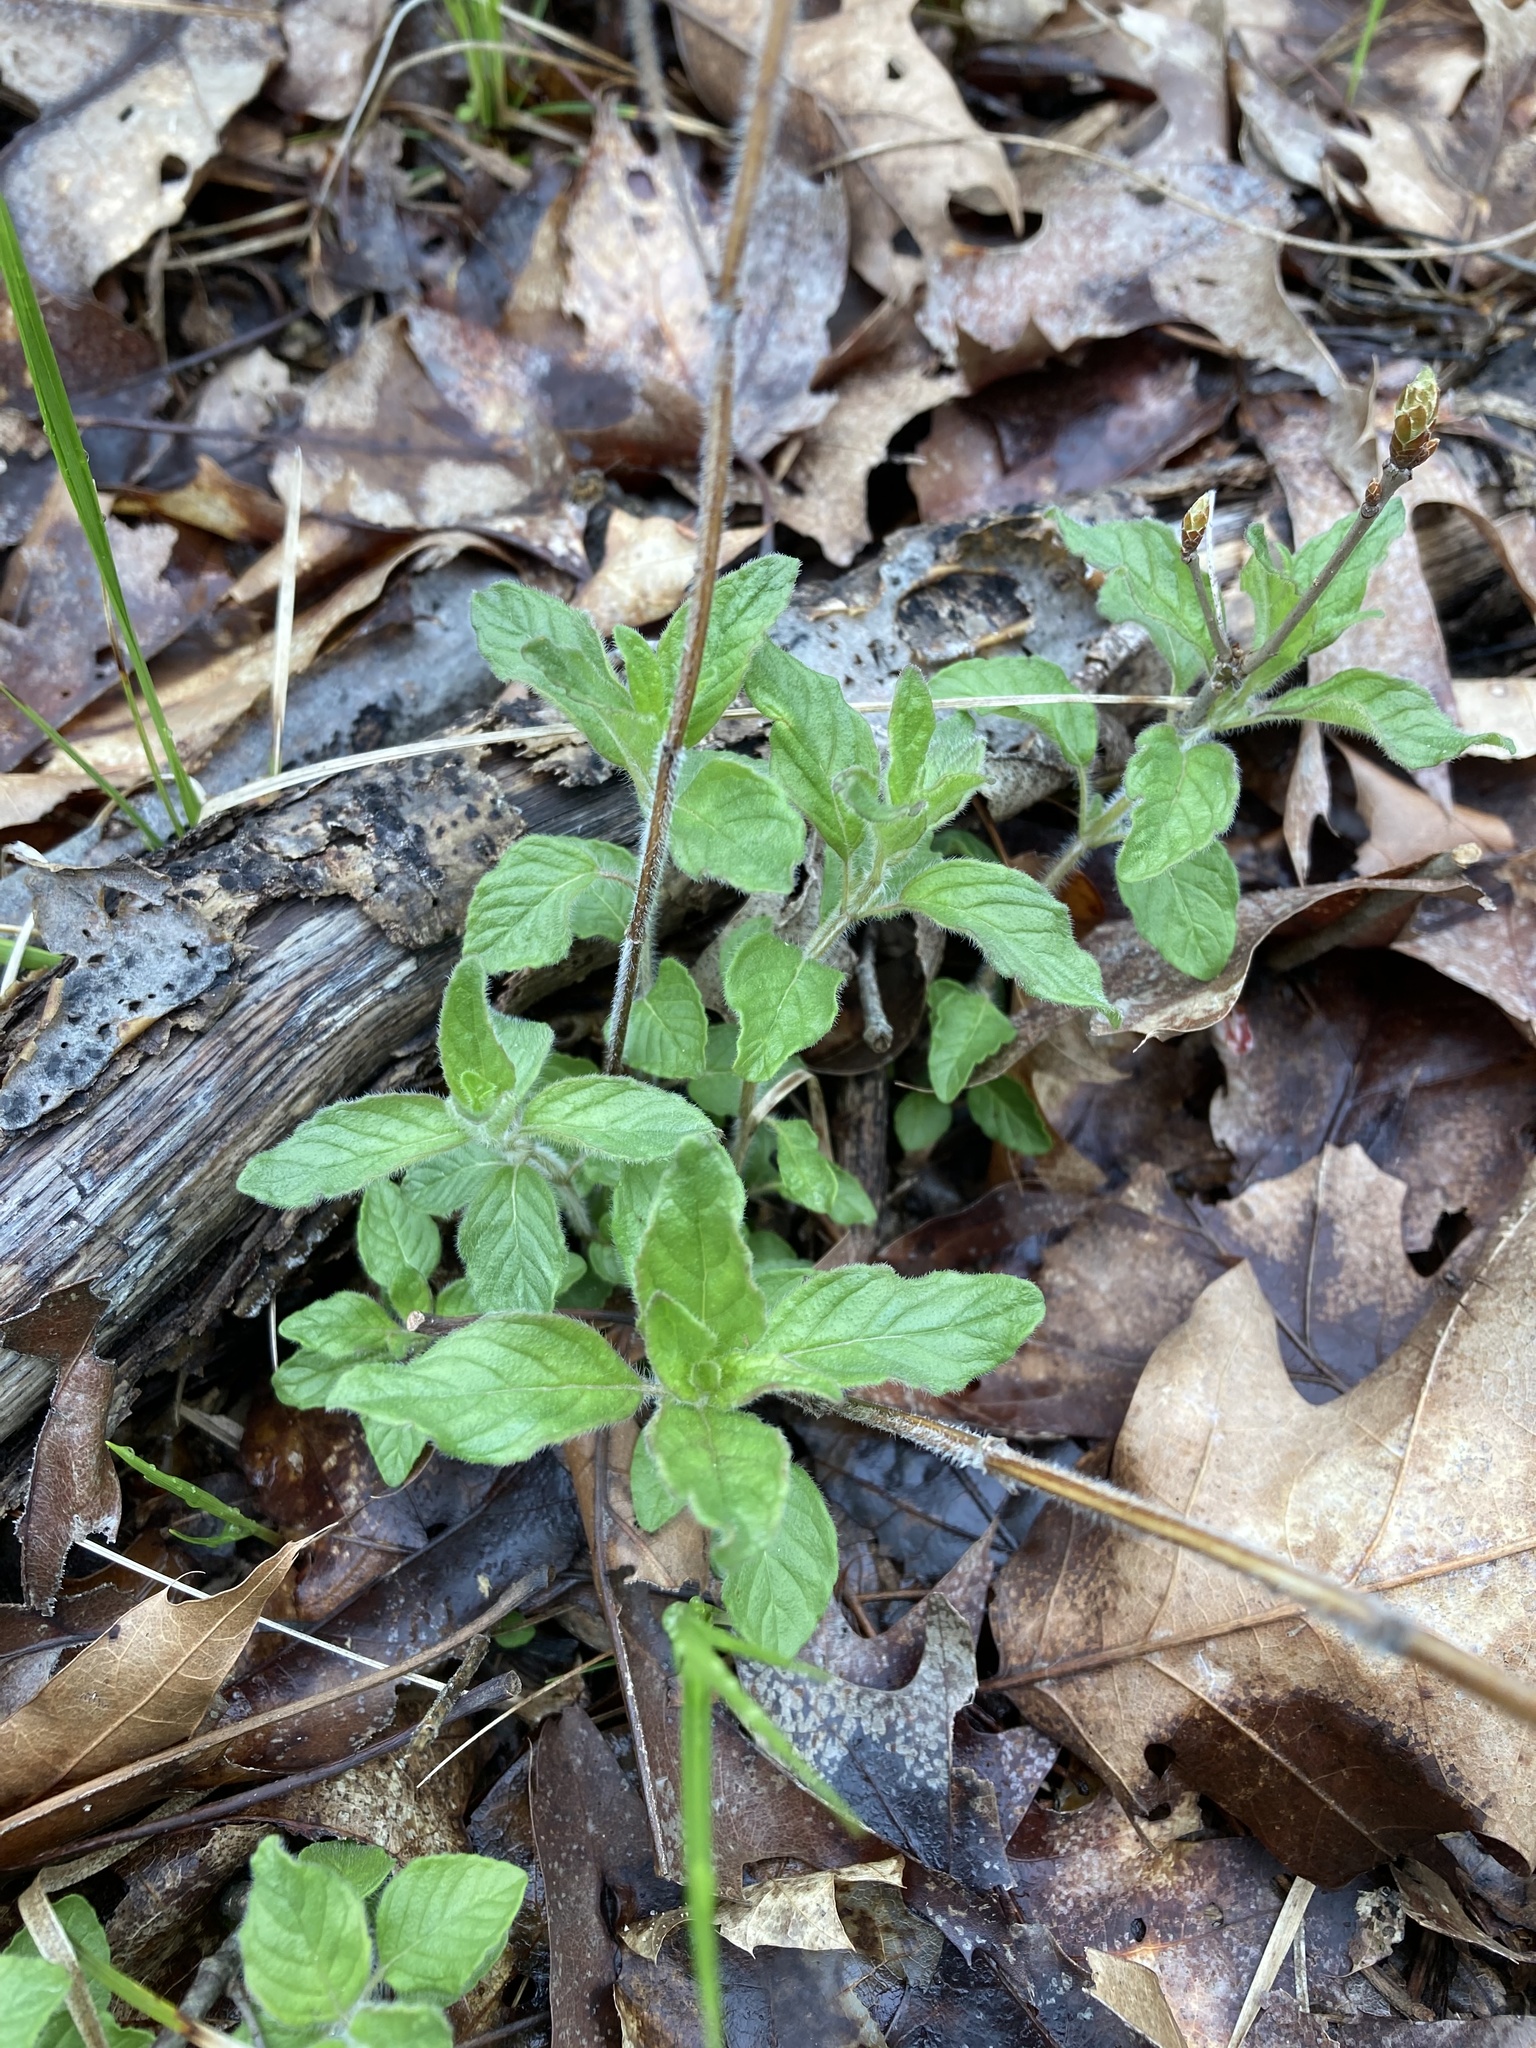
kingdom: Plantae
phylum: Tracheophyta
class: Magnoliopsida
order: Lamiales
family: Lamiaceae
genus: Clinopodium
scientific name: Clinopodium vulgare
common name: Wild basil
